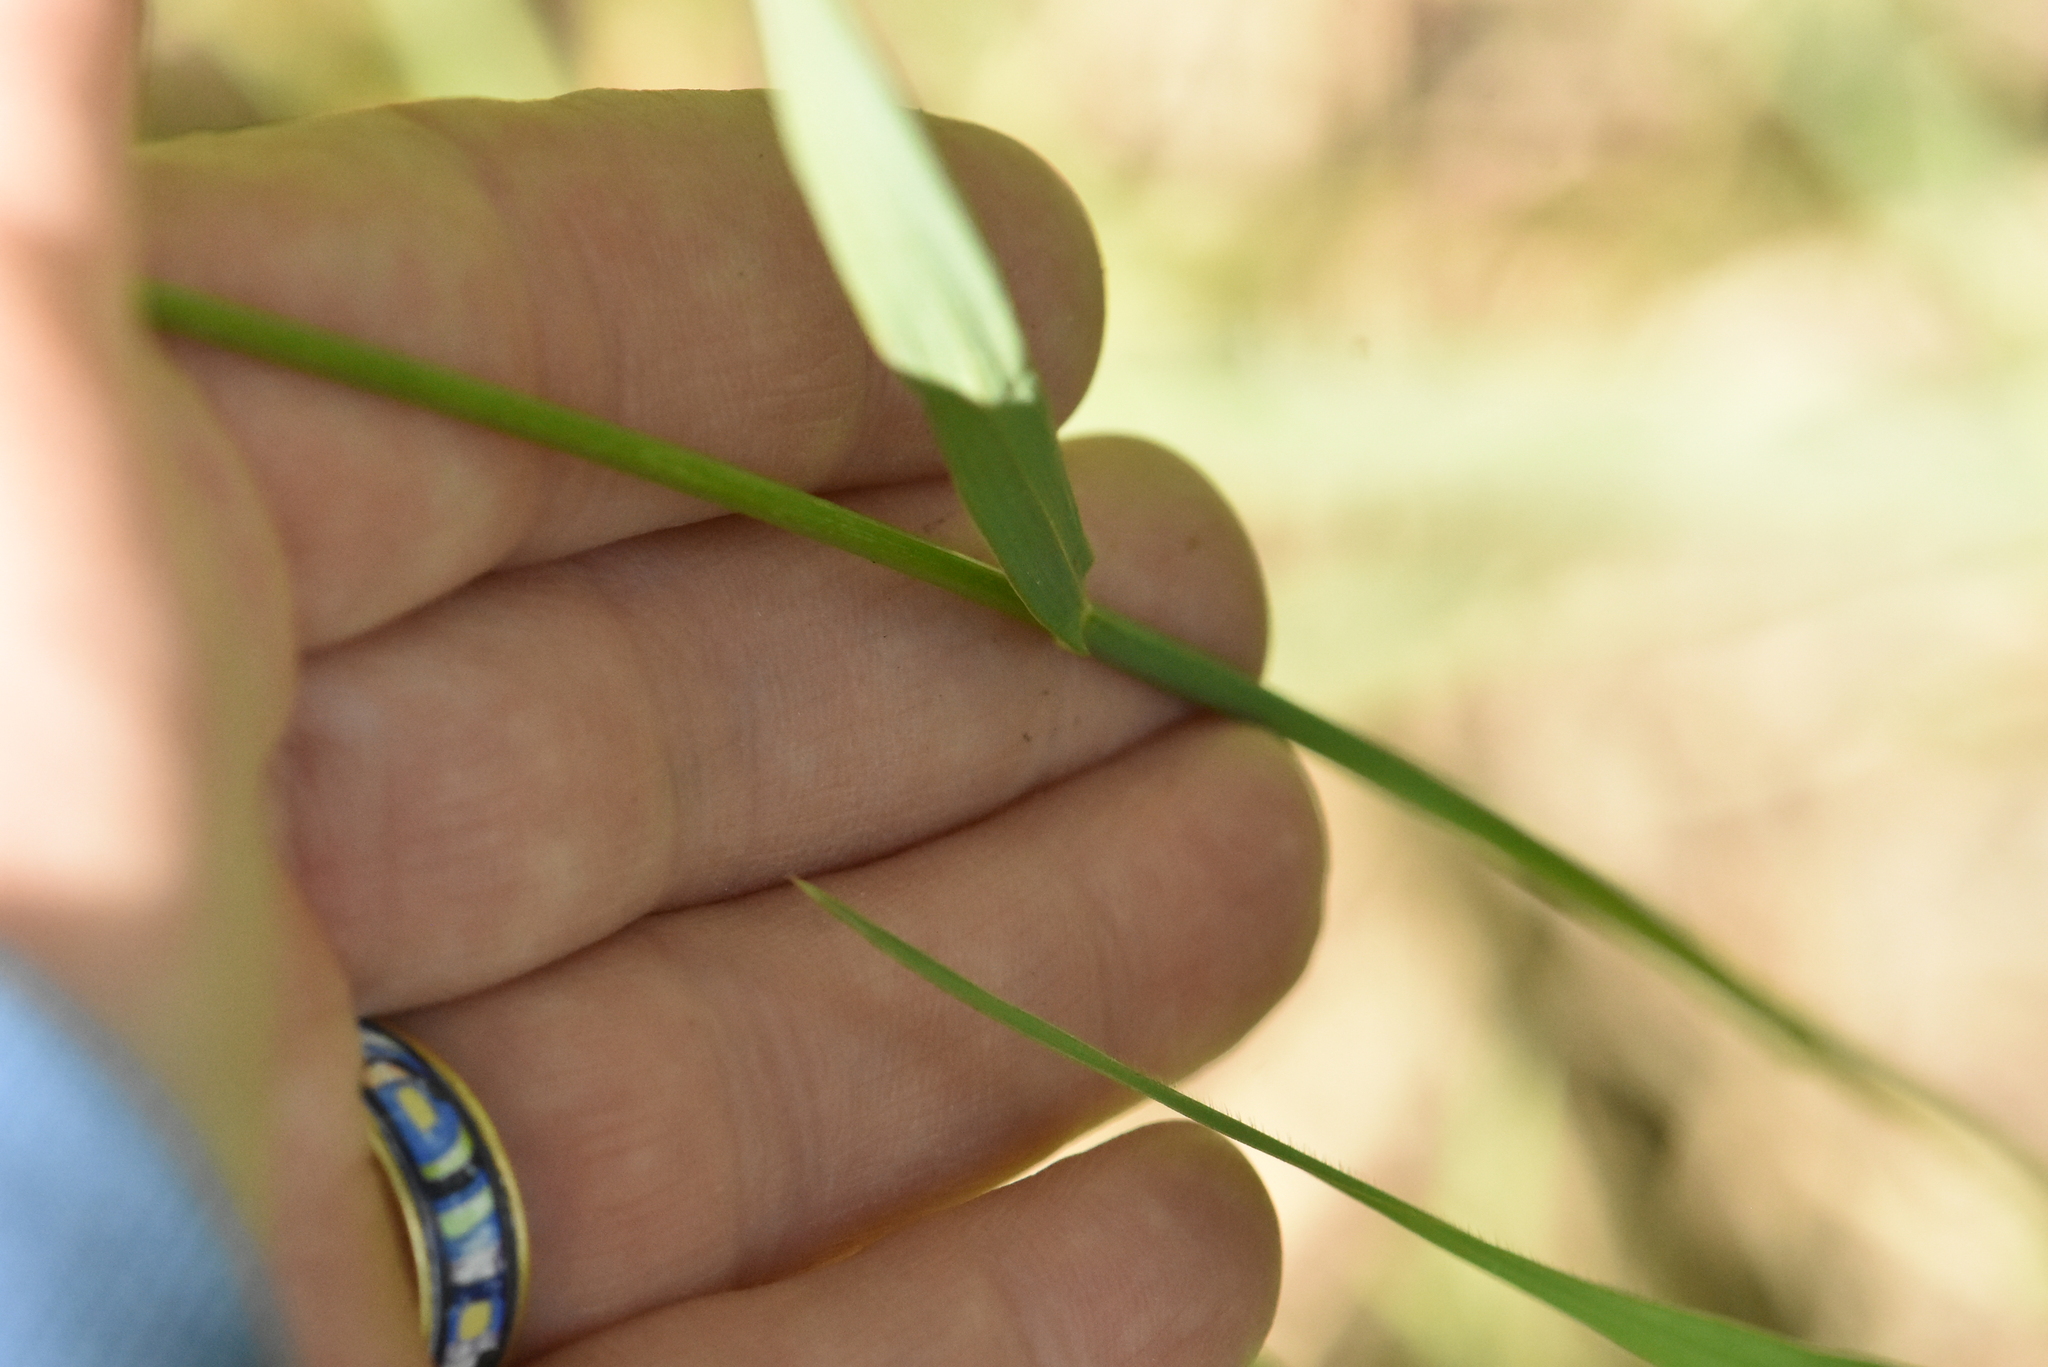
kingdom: Plantae
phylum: Tracheophyta
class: Liliopsida
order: Poales
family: Poaceae
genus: Bromus
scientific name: Bromus inermis
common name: Smooth brome
